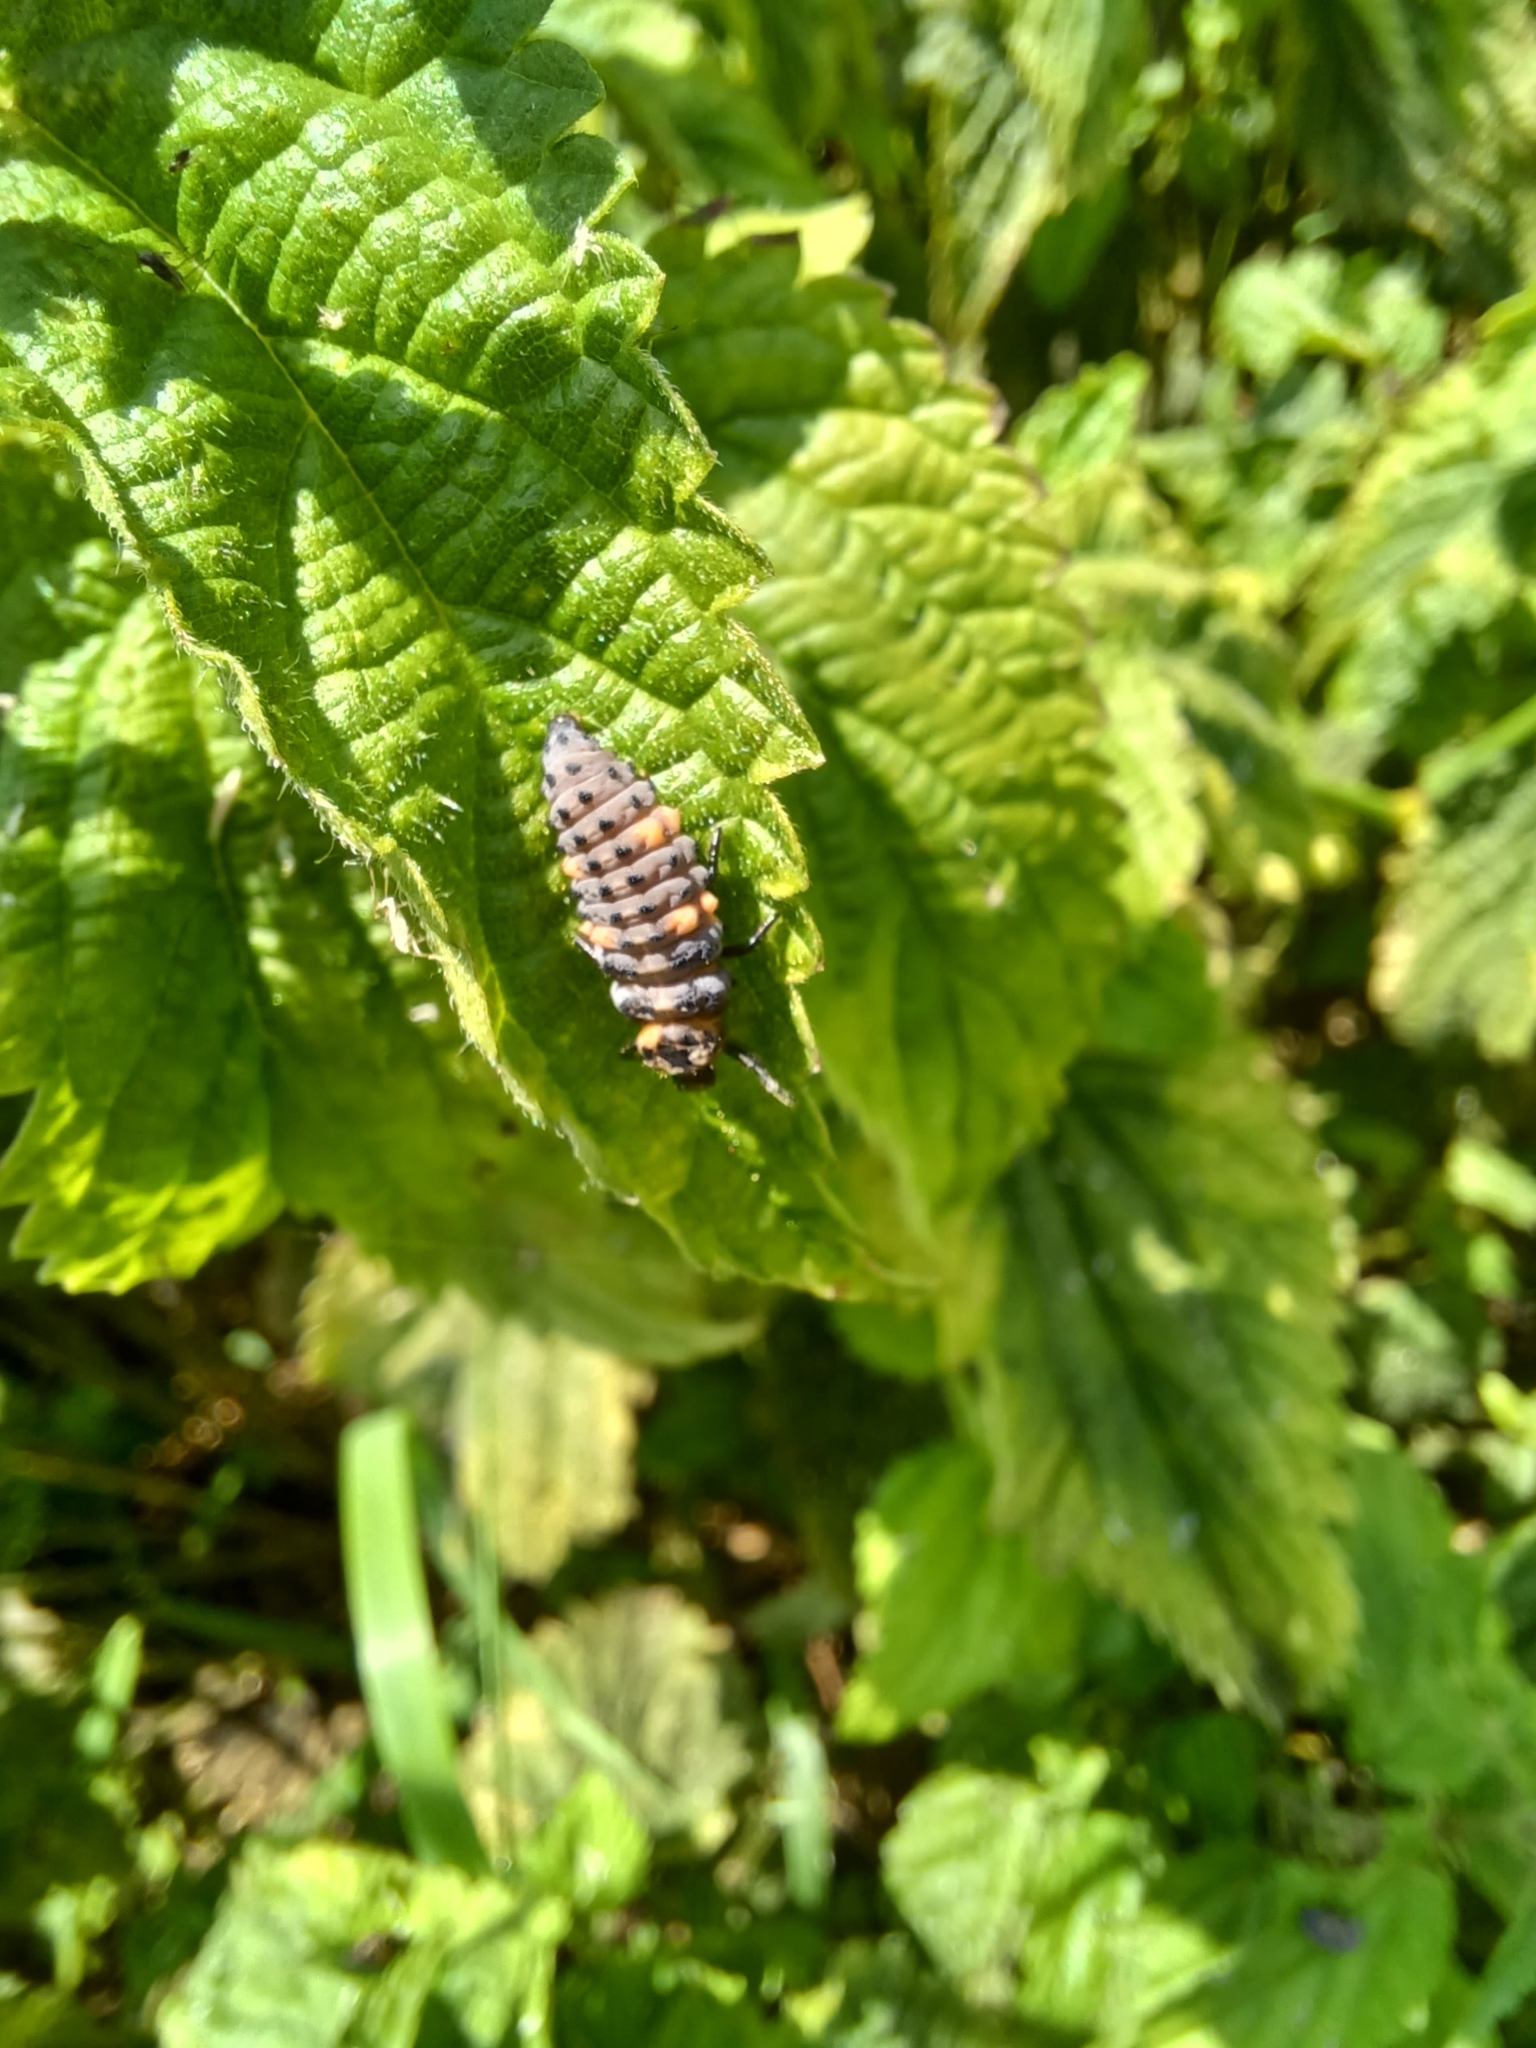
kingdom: Animalia
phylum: Arthropoda
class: Insecta
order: Coleoptera
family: Coccinellidae
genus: Coccinella
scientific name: Coccinella septempunctata
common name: Sevenspotted lady beetle
